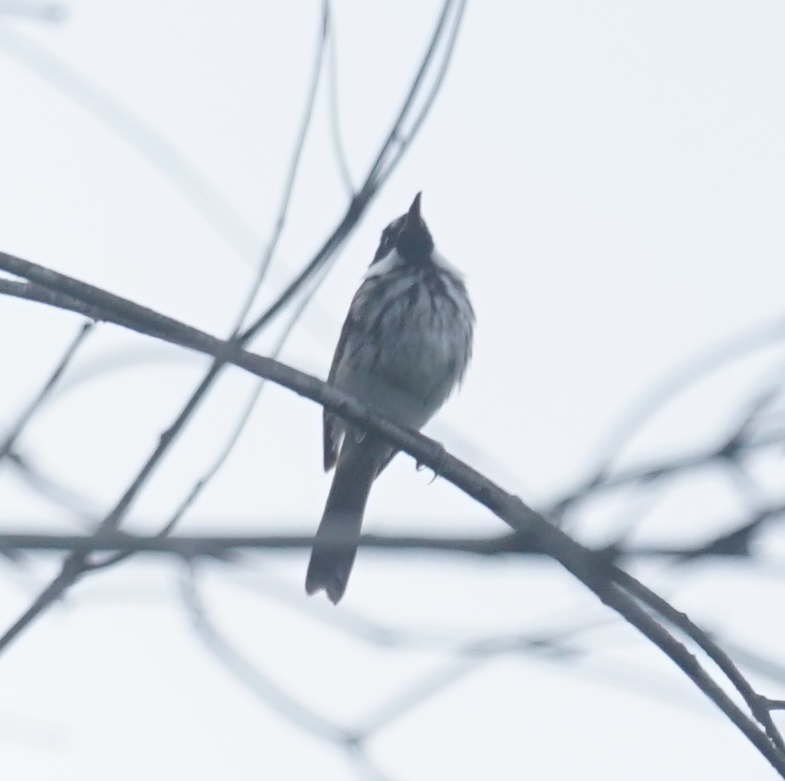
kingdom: Animalia
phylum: Chordata
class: Aves
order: Passeriformes
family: Meliphagidae
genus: Phylidonyris
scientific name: Phylidonyris niger
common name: White-cheeked honeyeater
